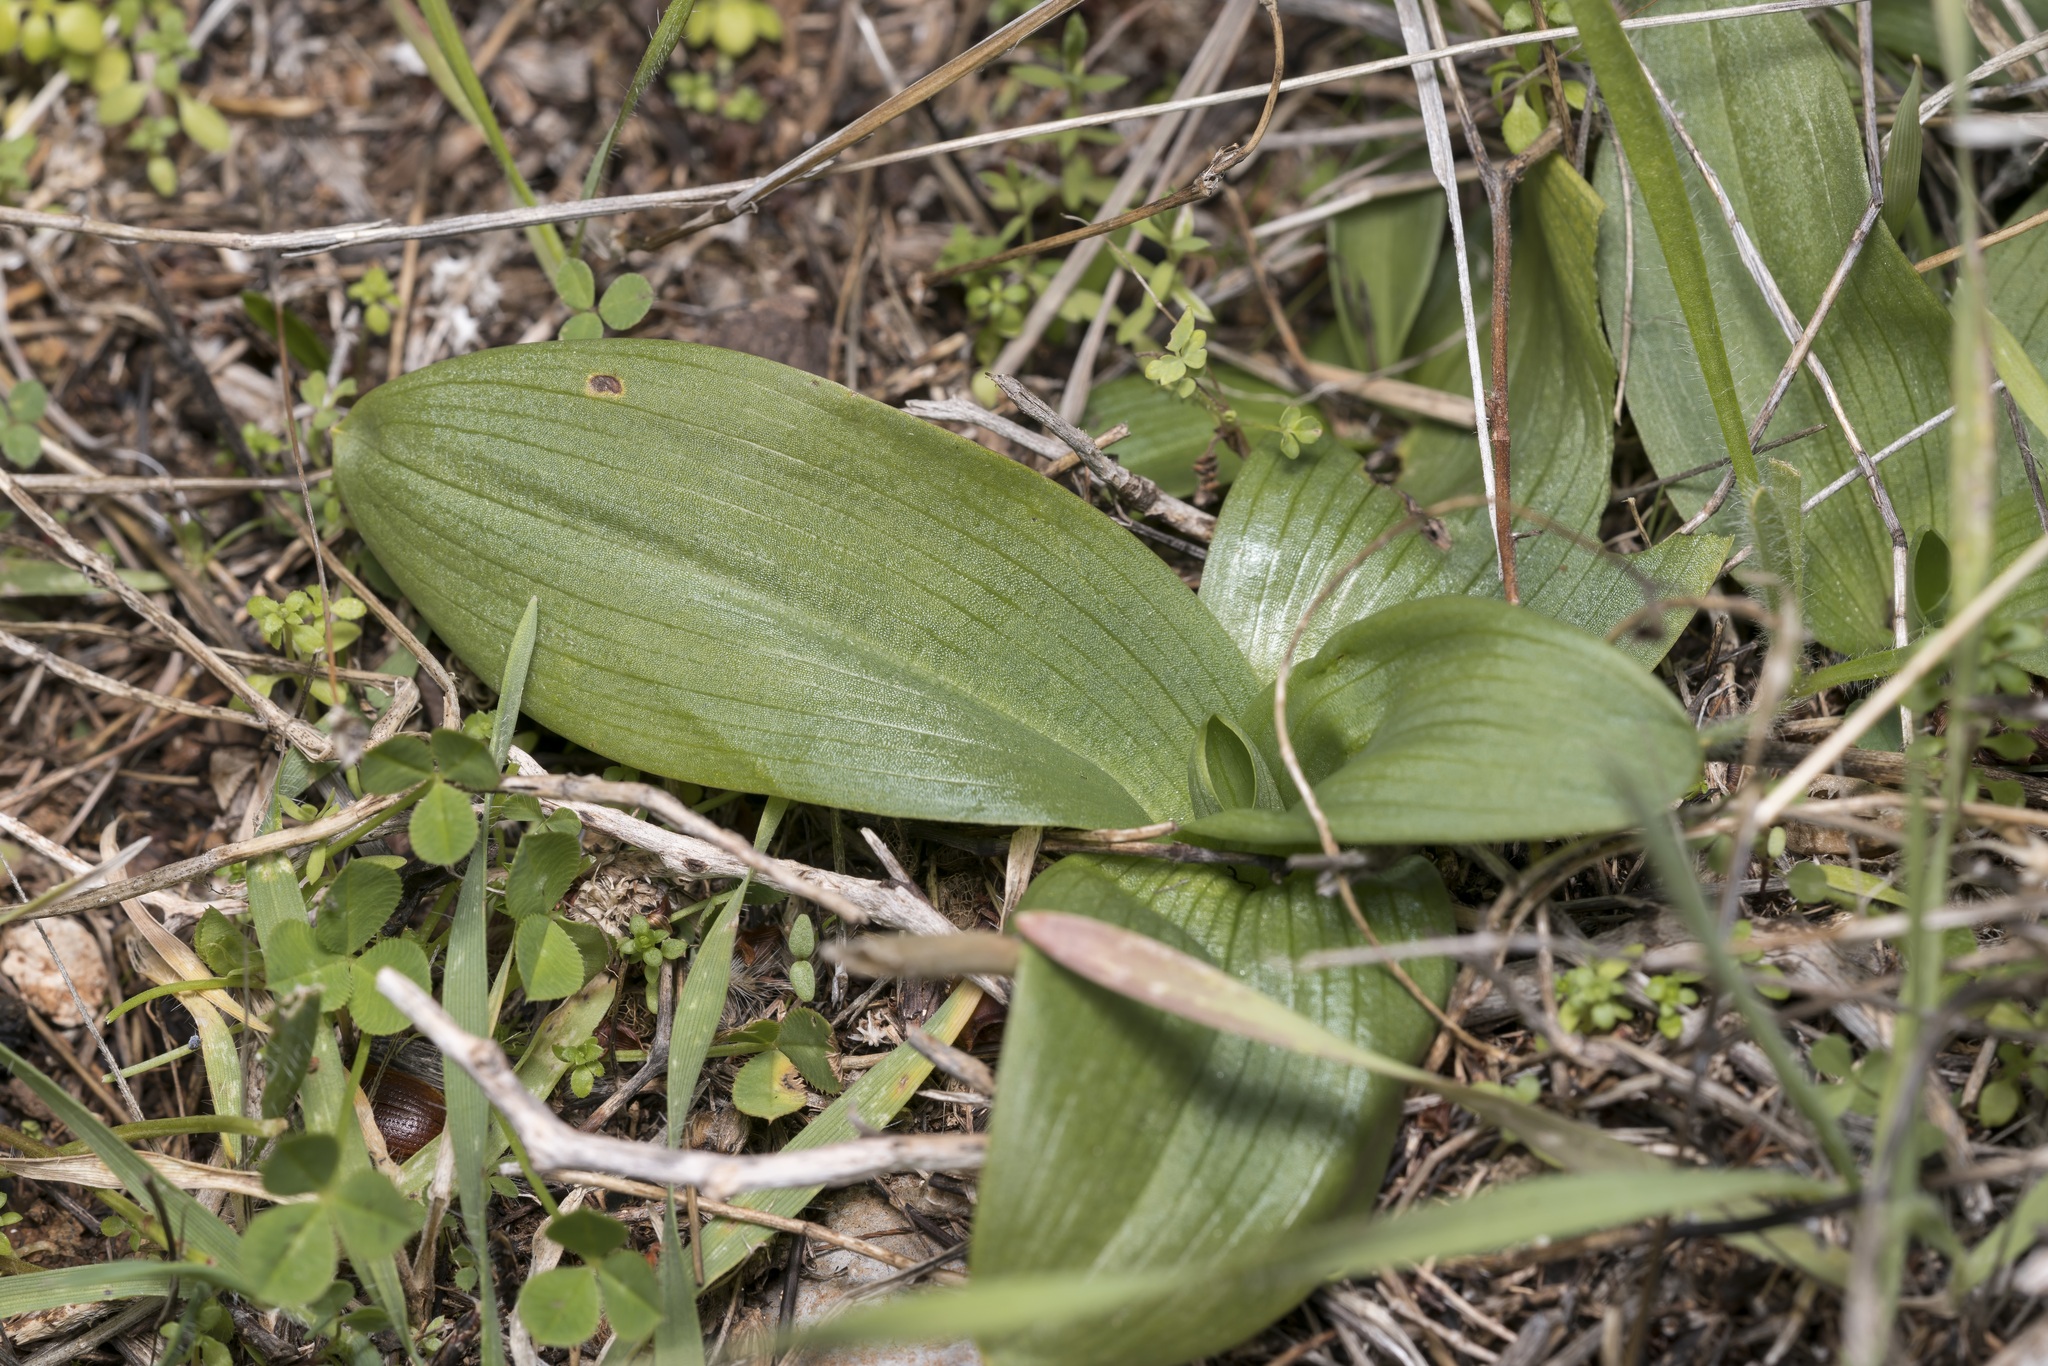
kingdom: Plantae
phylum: Tracheophyta
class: Liliopsida
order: Asparagales
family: Orchidaceae
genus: Anacamptis
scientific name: Anacamptis collina
